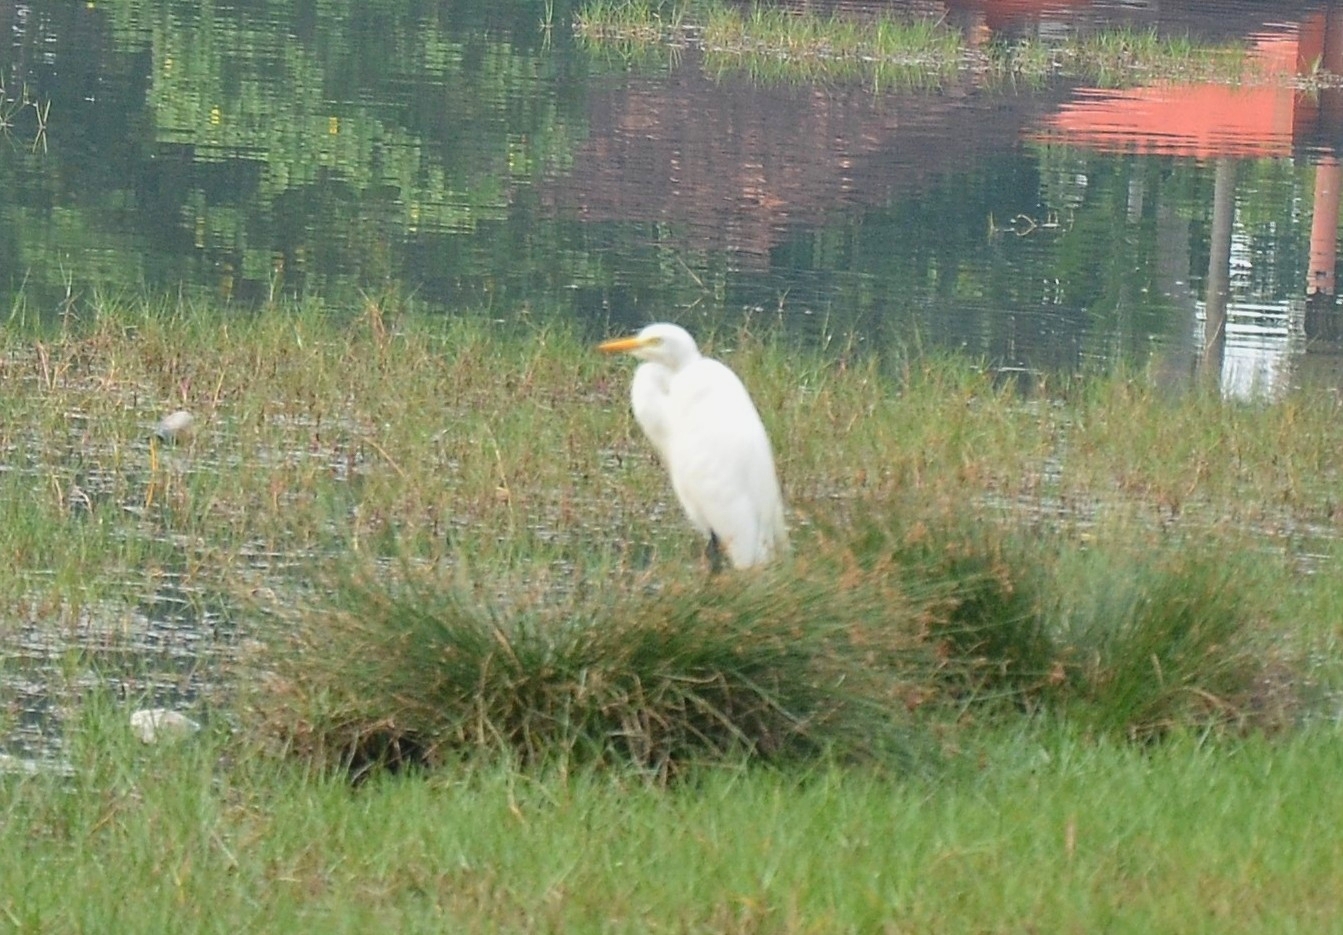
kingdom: Animalia
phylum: Chordata
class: Aves
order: Pelecaniformes
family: Ardeidae
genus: Egretta
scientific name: Egretta intermedia
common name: Intermediate egret
